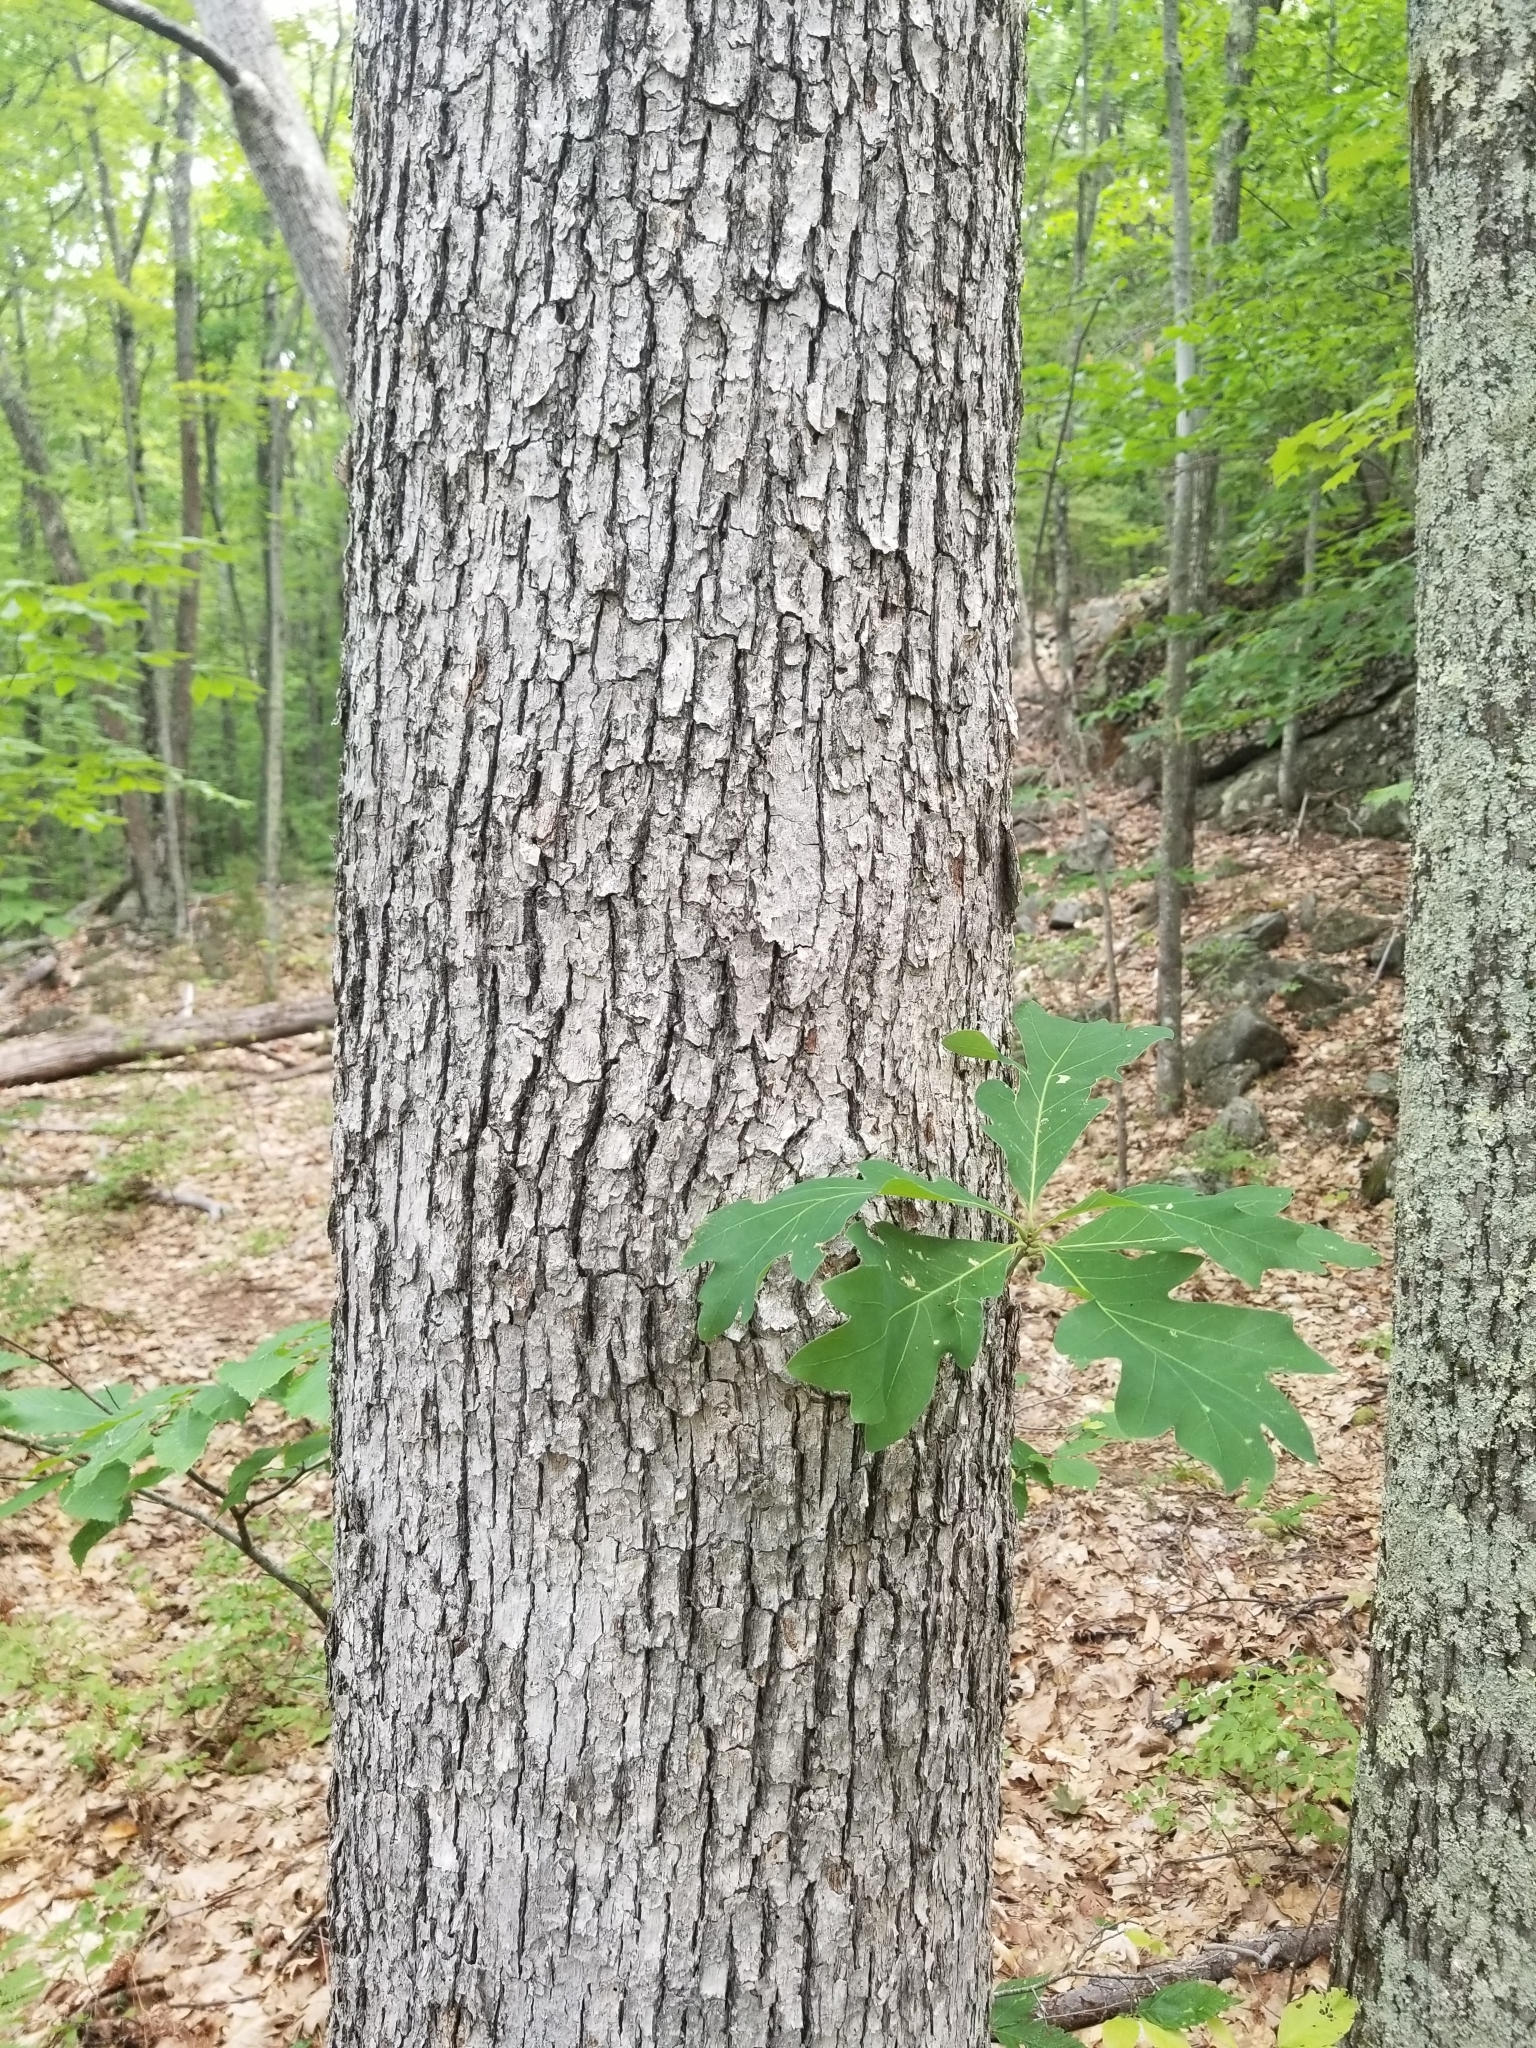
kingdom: Plantae
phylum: Tracheophyta
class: Magnoliopsida
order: Fagales
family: Fagaceae
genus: Quercus
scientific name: Quercus alba
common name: White oak
